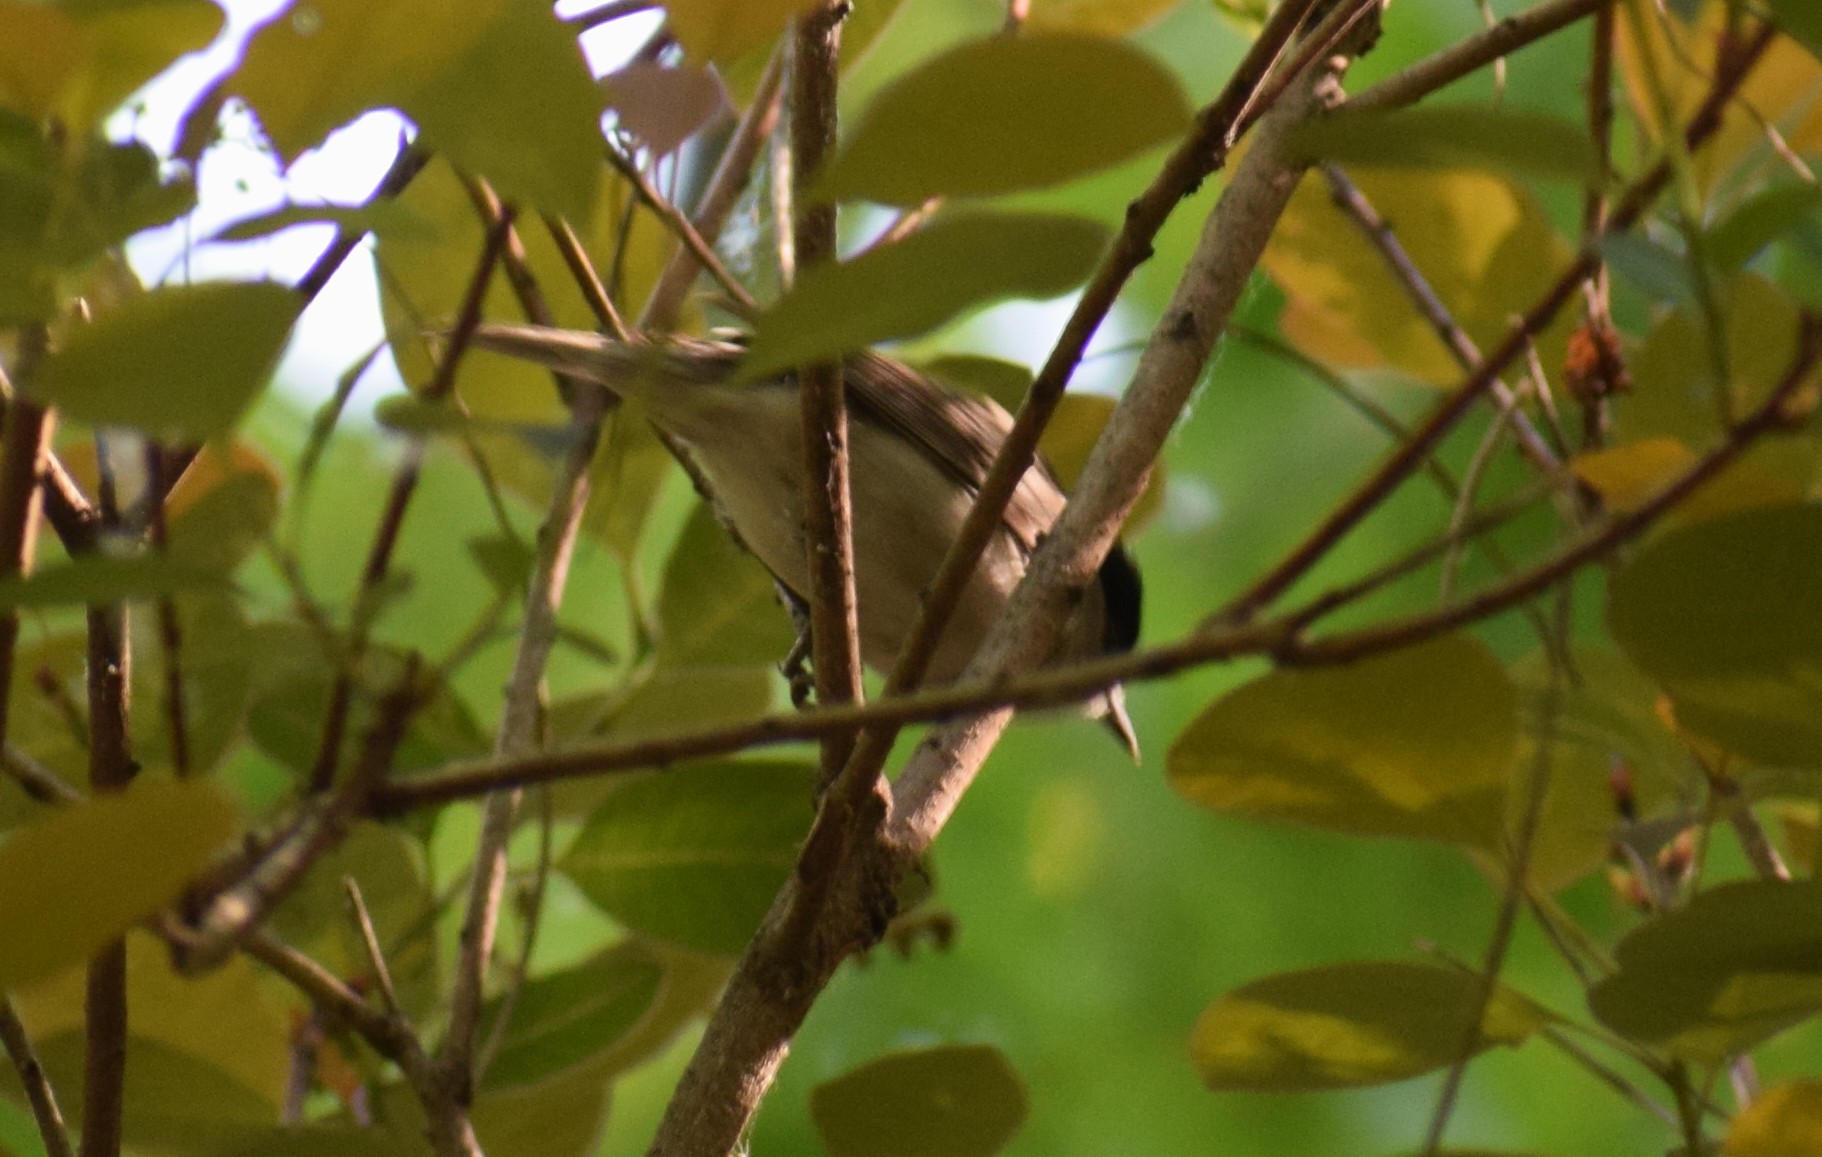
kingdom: Animalia
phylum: Chordata
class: Aves
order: Passeriformes
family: Sylviidae
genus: Sylvia
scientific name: Sylvia atricapilla
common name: Eurasian blackcap
